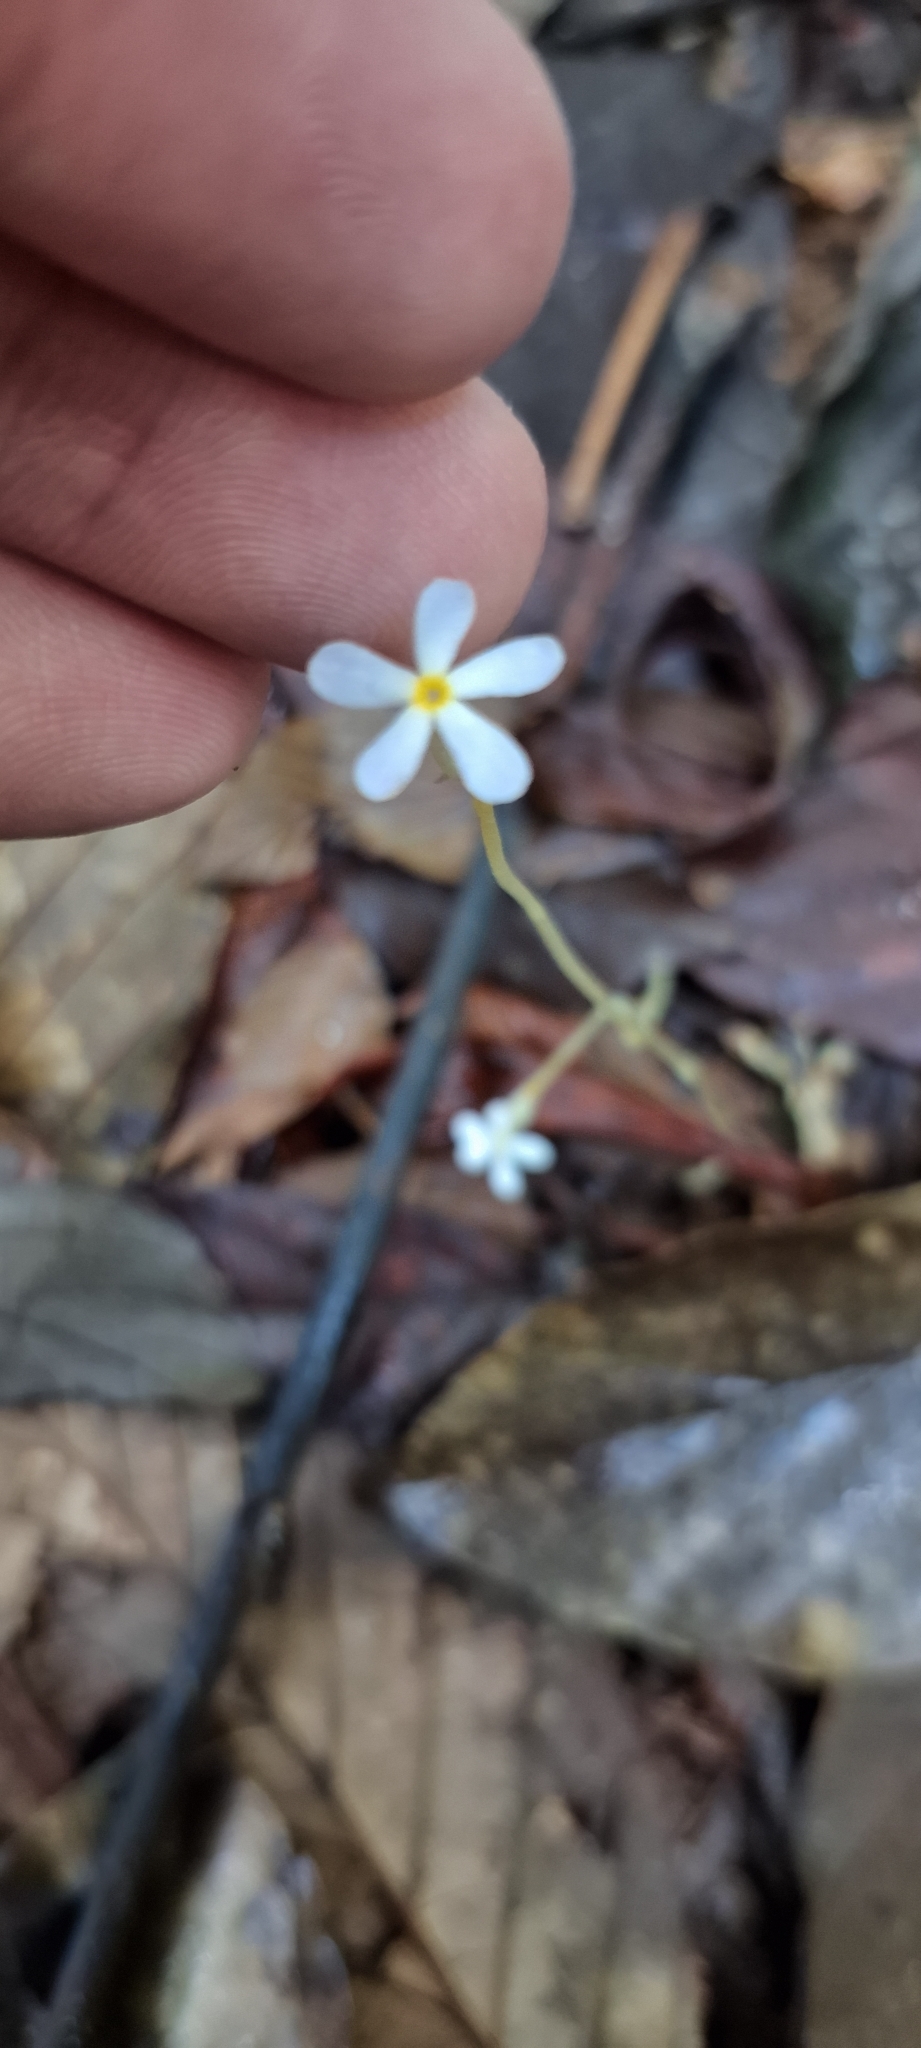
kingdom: Plantae
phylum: Tracheophyta
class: Magnoliopsida
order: Gentianales
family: Gentianaceae
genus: Voyria
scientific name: Voyria tenella
